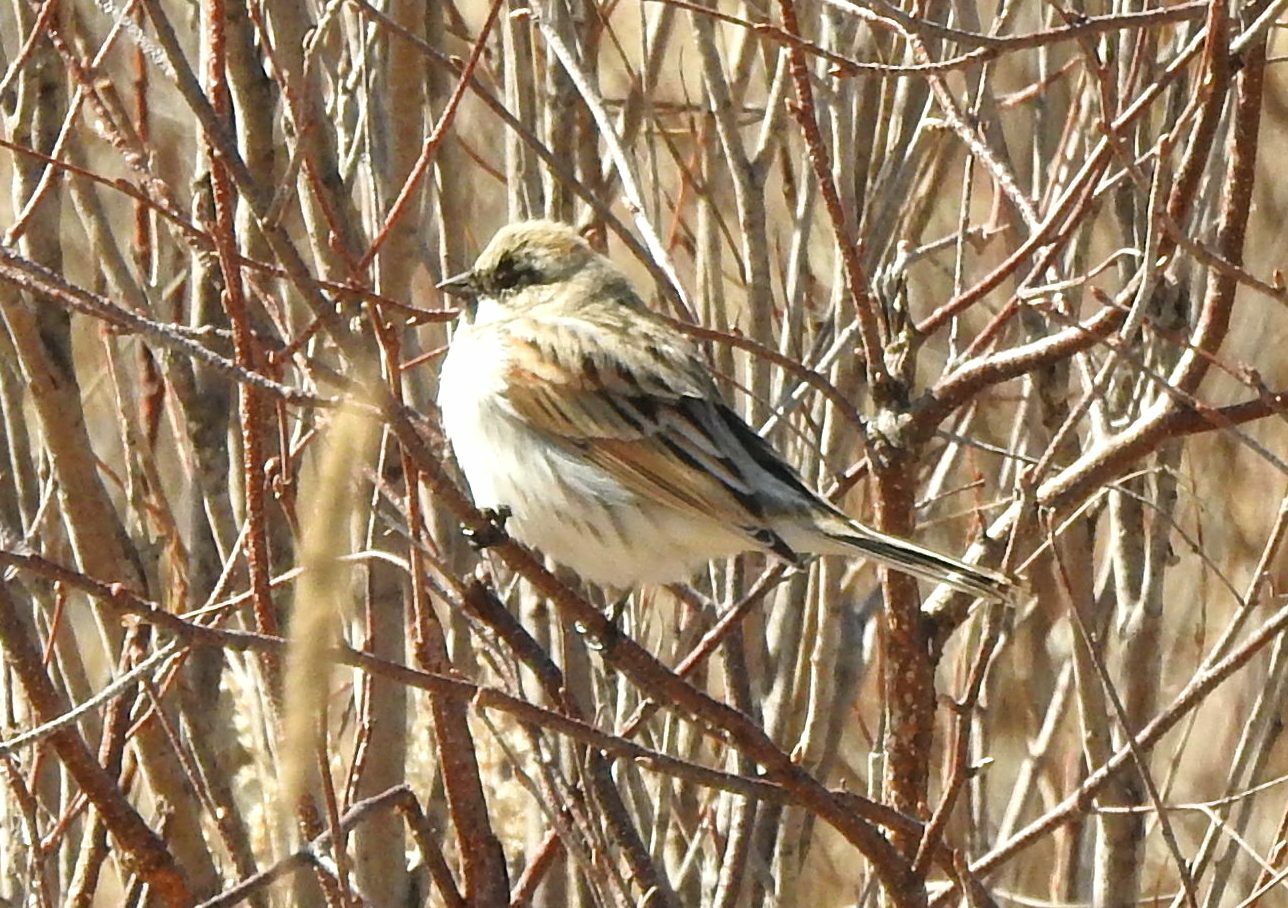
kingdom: Animalia
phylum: Chordata
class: Aves
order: Passeriformes
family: Emberizidae
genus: Emberiza
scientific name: Emberiza pallasi
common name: Pallas's reed bunting
